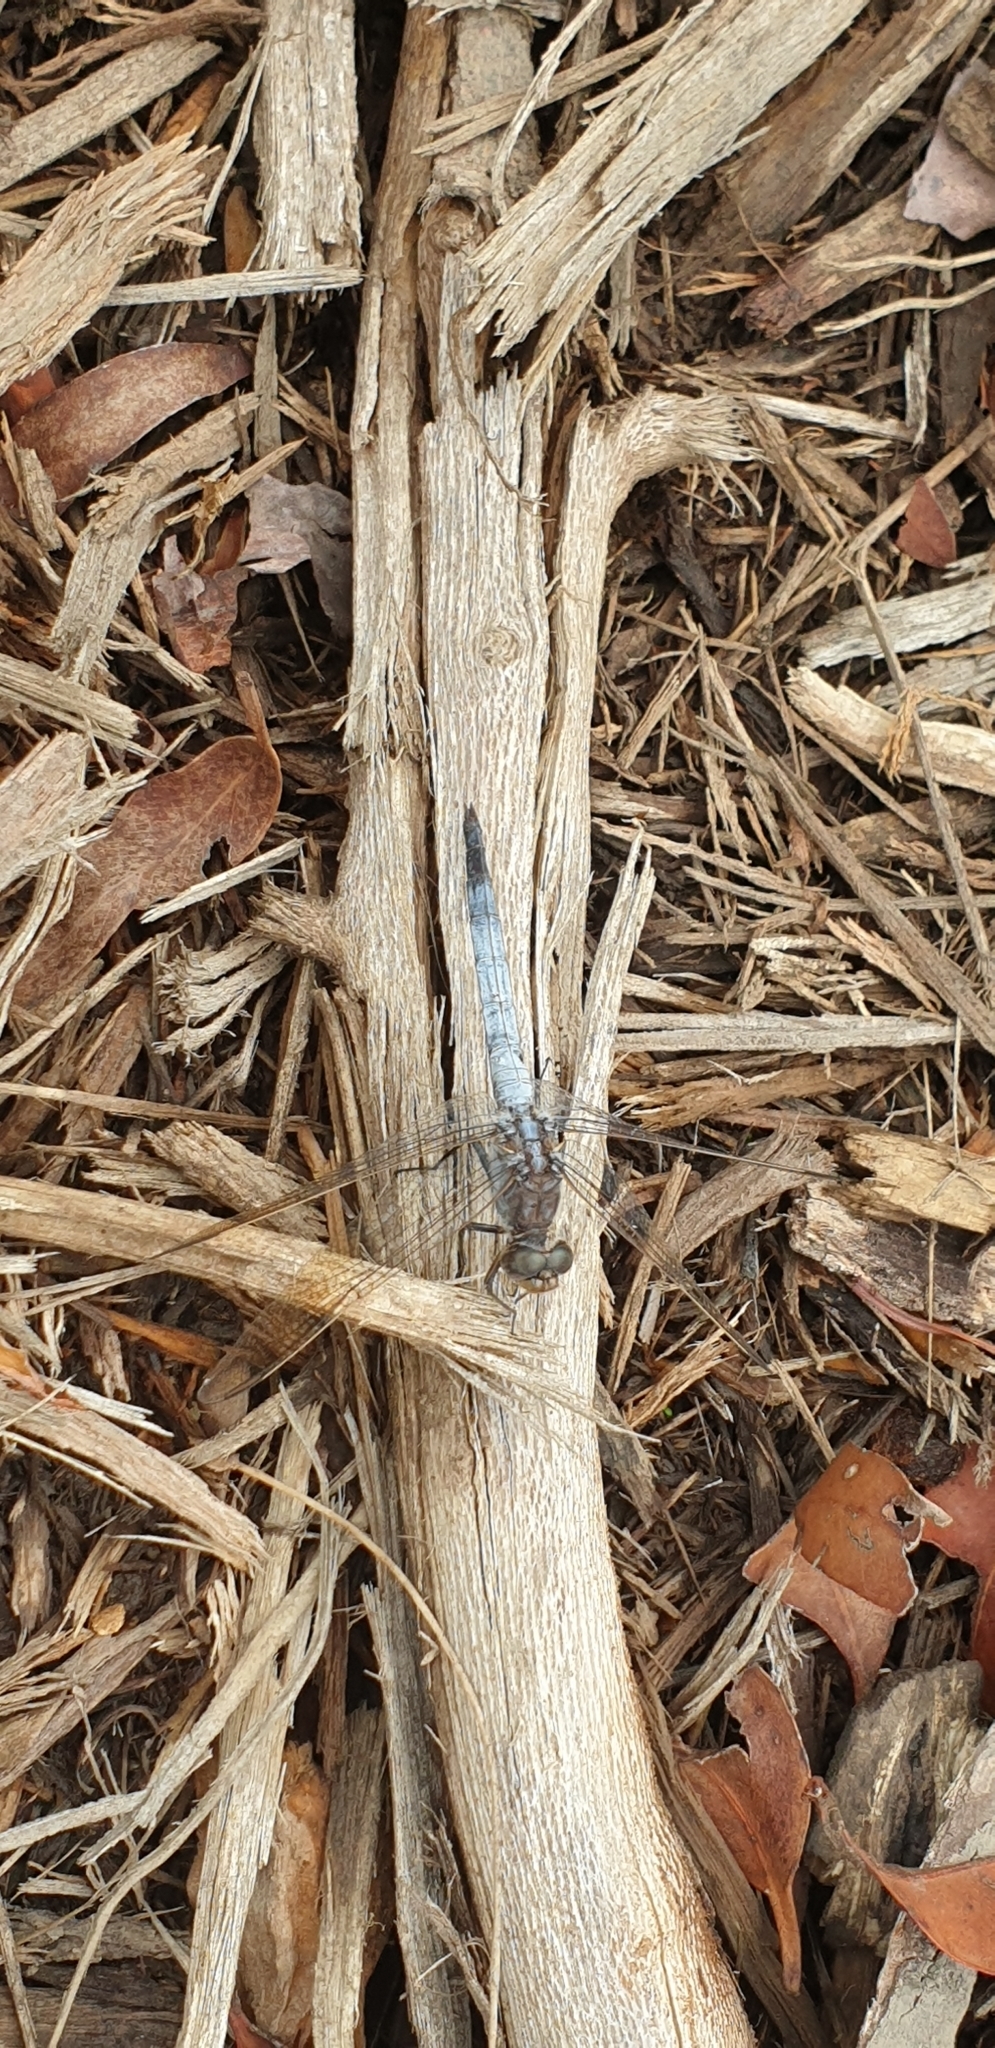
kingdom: Animalia
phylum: Arthropoda
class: Insecta
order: Odonata
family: Libellulidae
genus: Orthetrum
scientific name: Orthetrum caledonicum
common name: Blue skimmer
